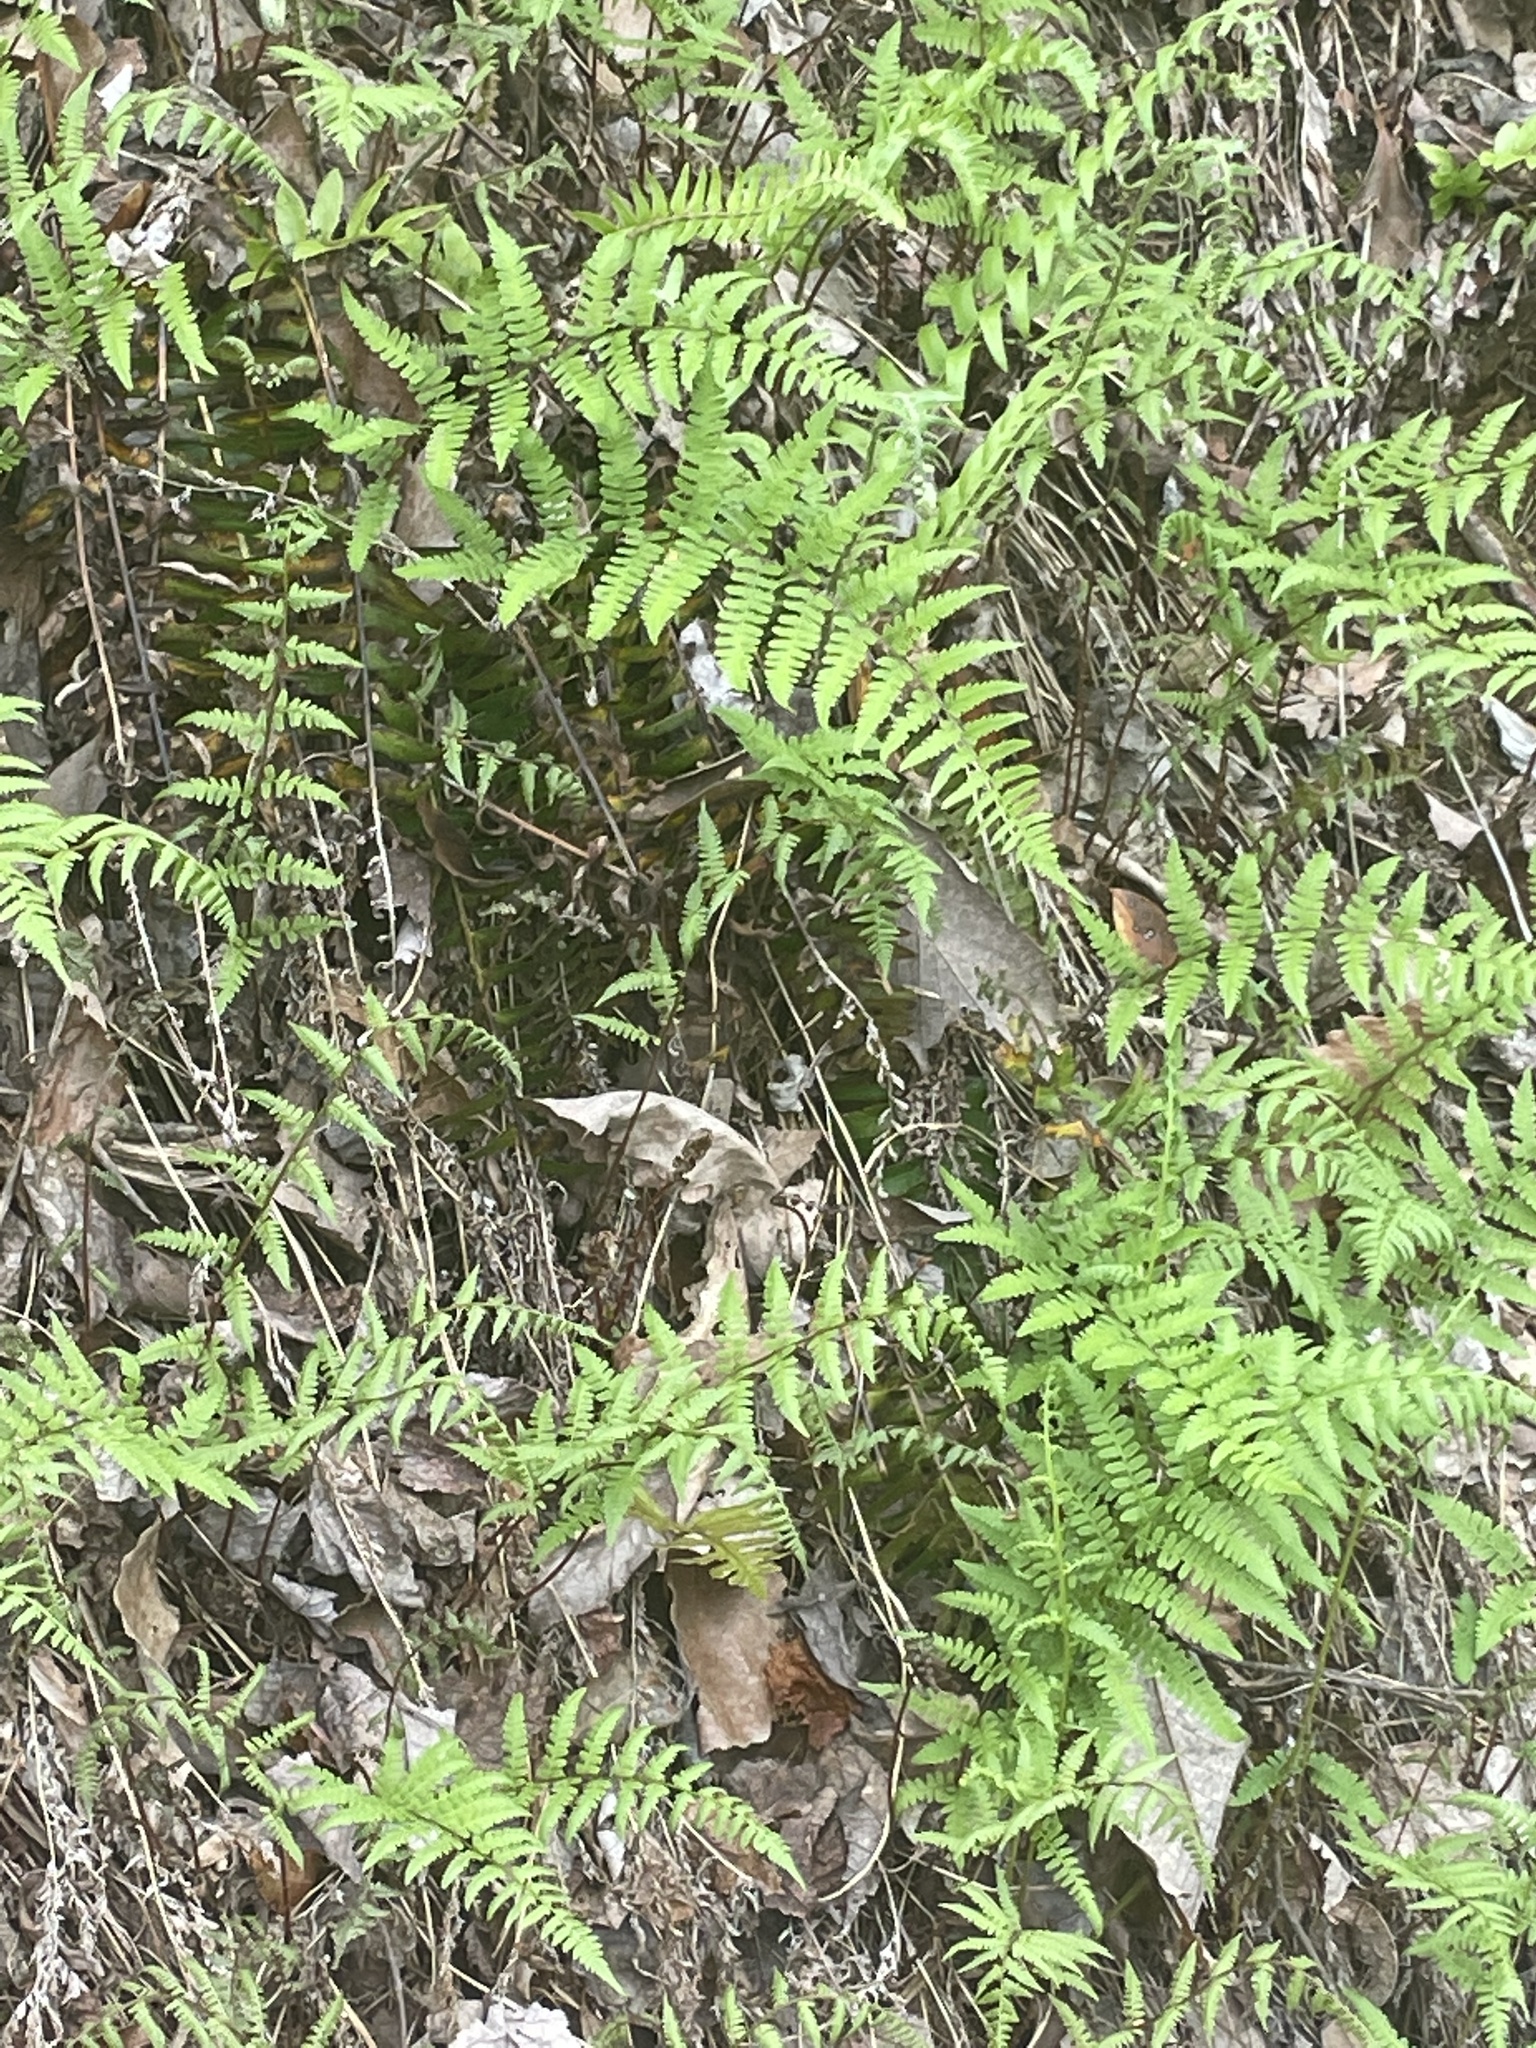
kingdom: Plantae
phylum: Tracheophyta
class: Polypodiopsida
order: Polypodiales
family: Athyriaceae
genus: Athyrium
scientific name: Athyrium asplenioides
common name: Southern lady fern
